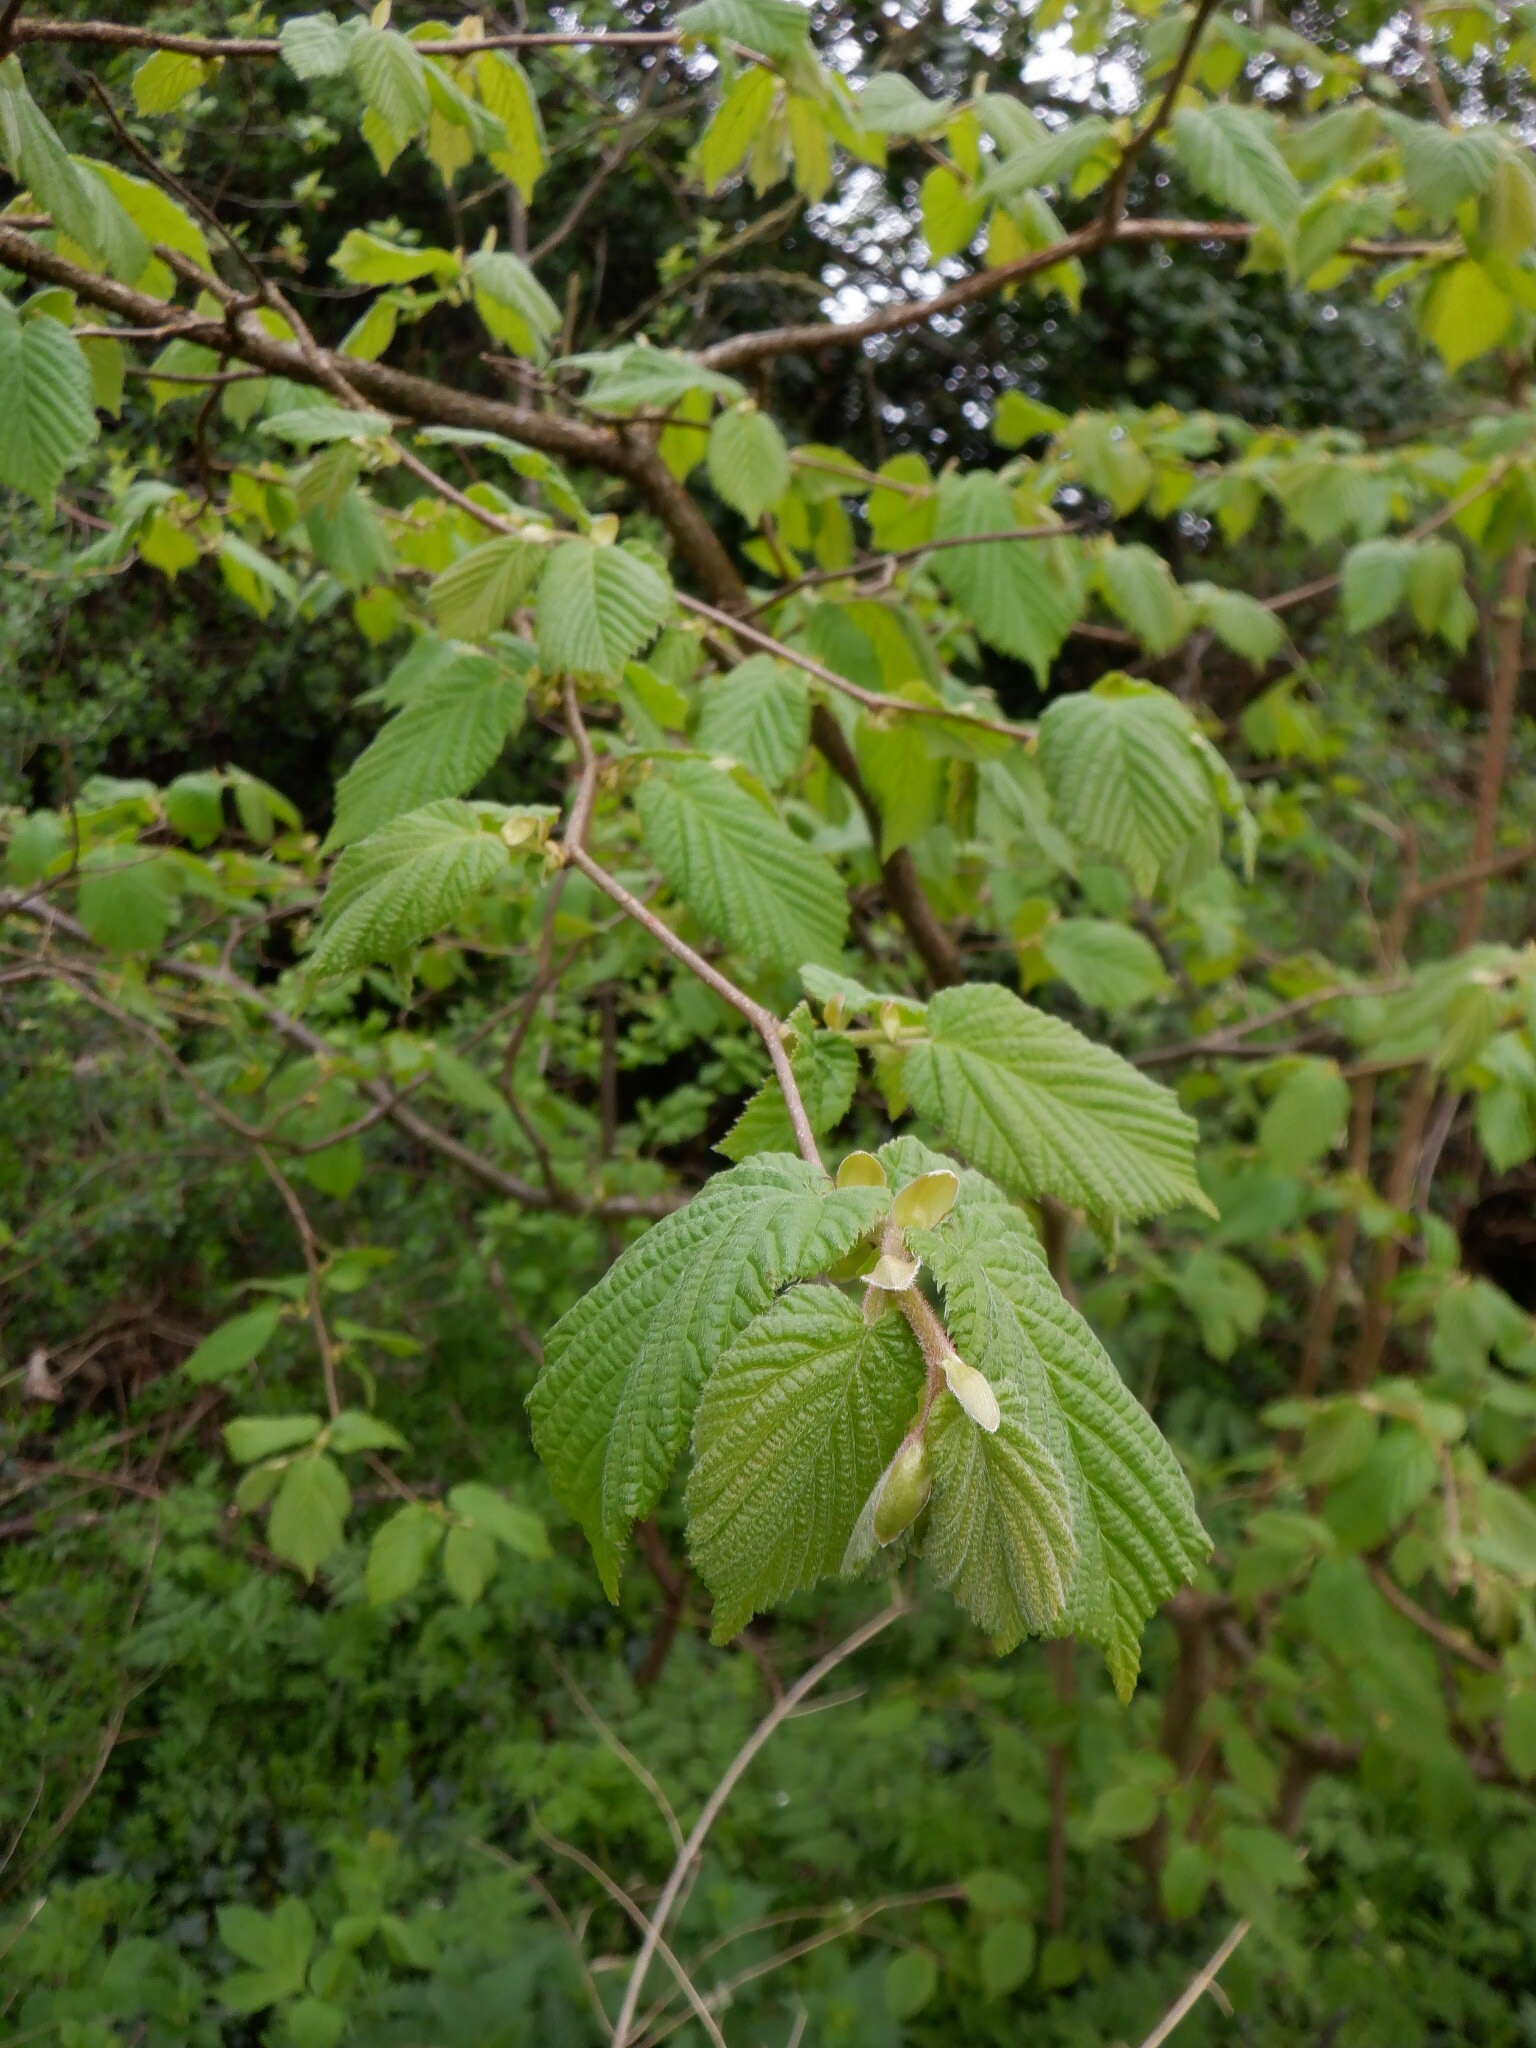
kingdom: Plantae
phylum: Tracheophyta
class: Magnoliopsida
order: Fagales
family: Betulaceae
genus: Corylus
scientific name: Corylus avellana
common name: European hazel
